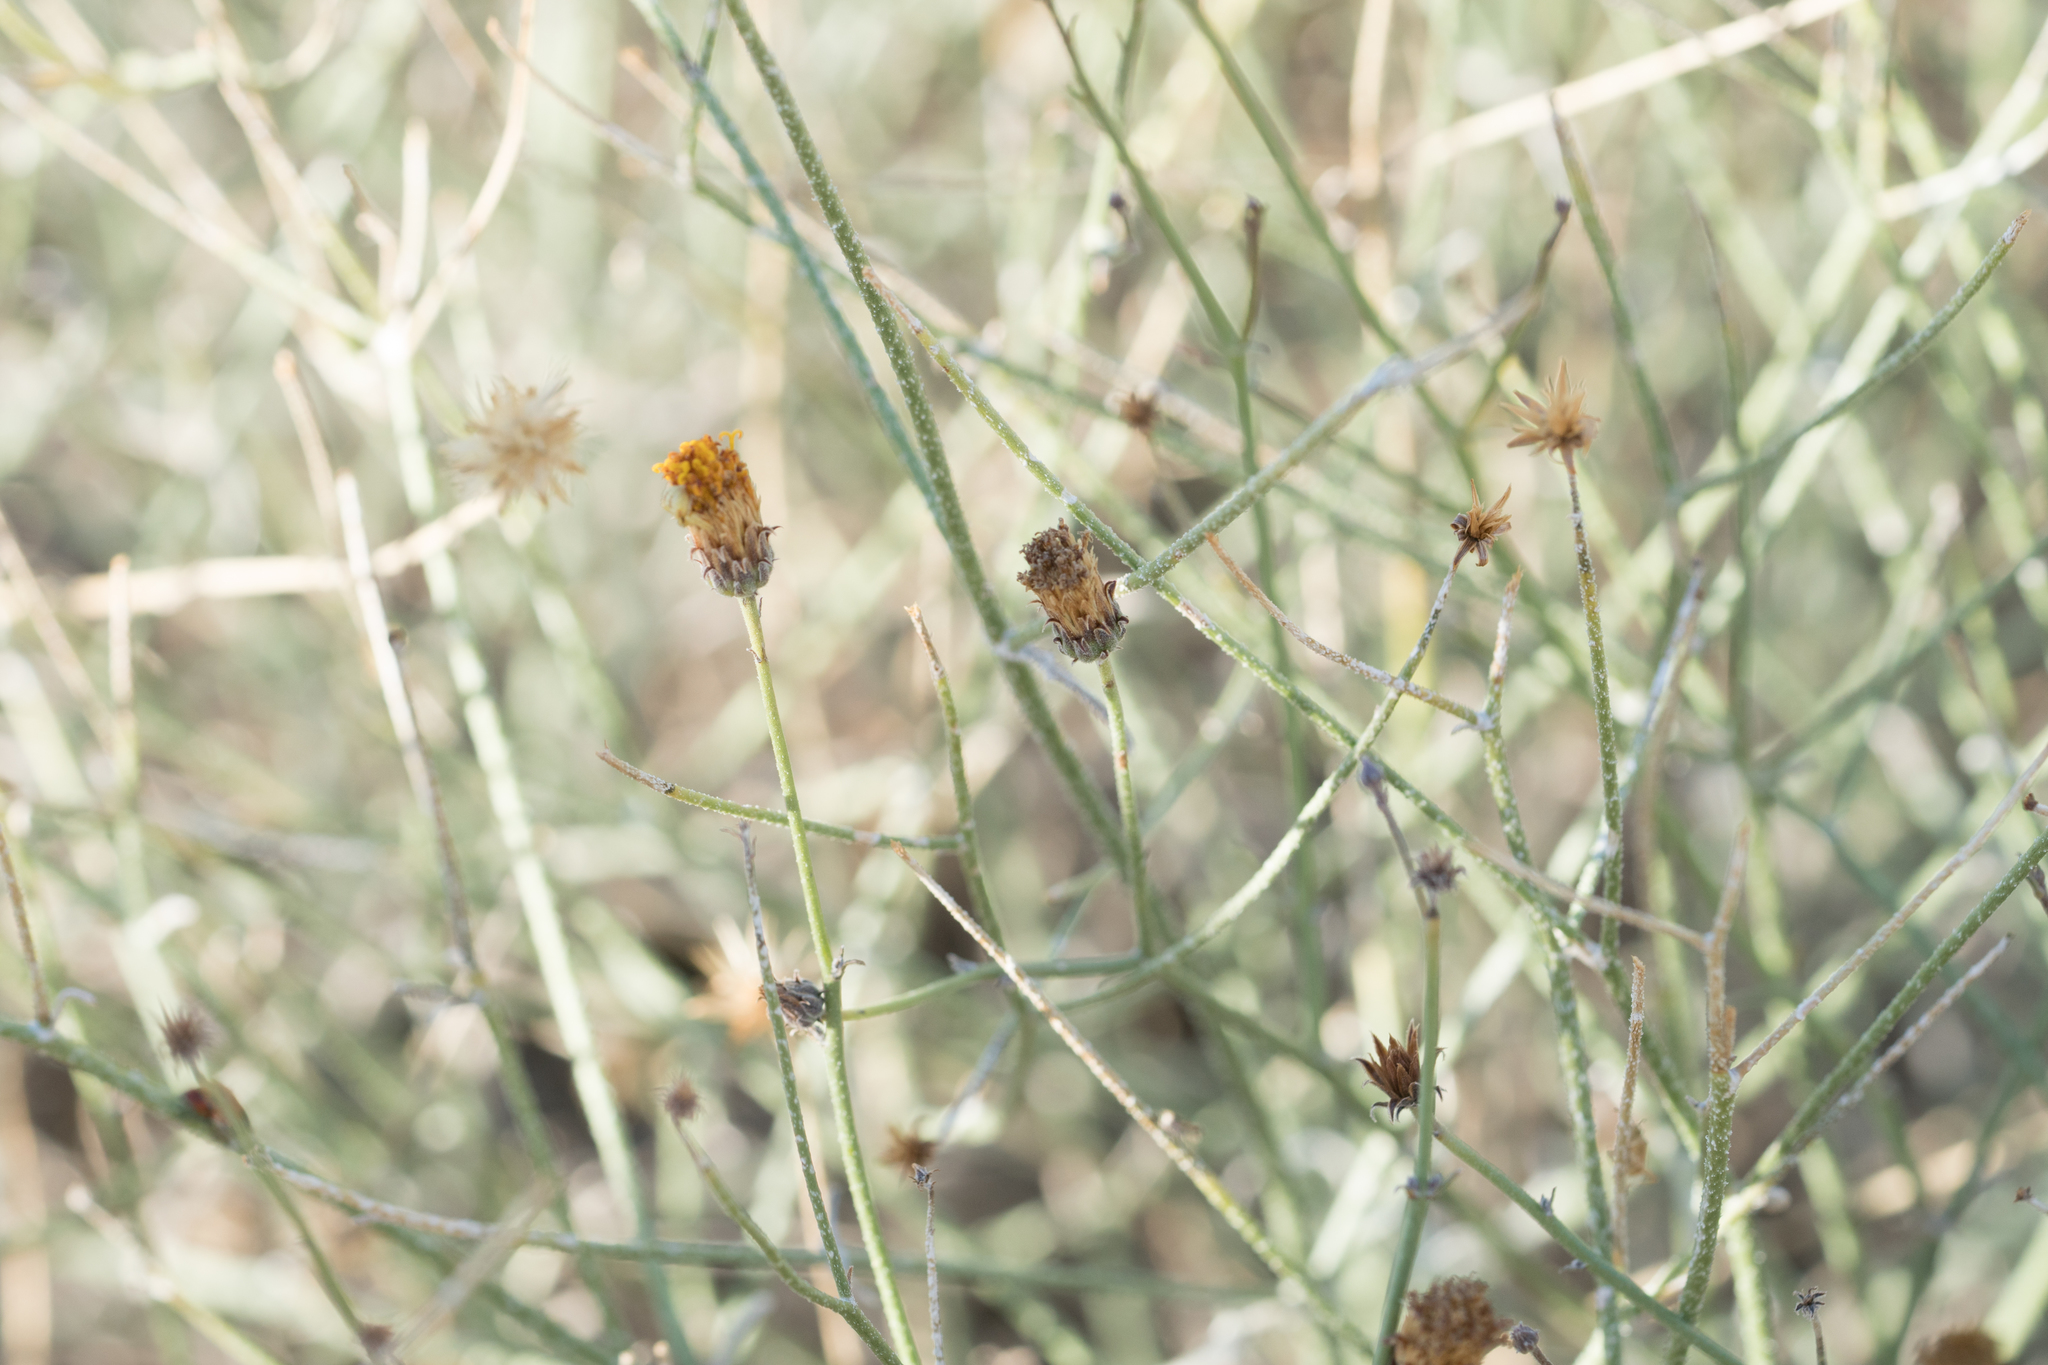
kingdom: Plantae
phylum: Tracheophyta
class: Magnoliopsida
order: Asterales
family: Asteraceae
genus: Bebbia
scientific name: Bebbia juncea
